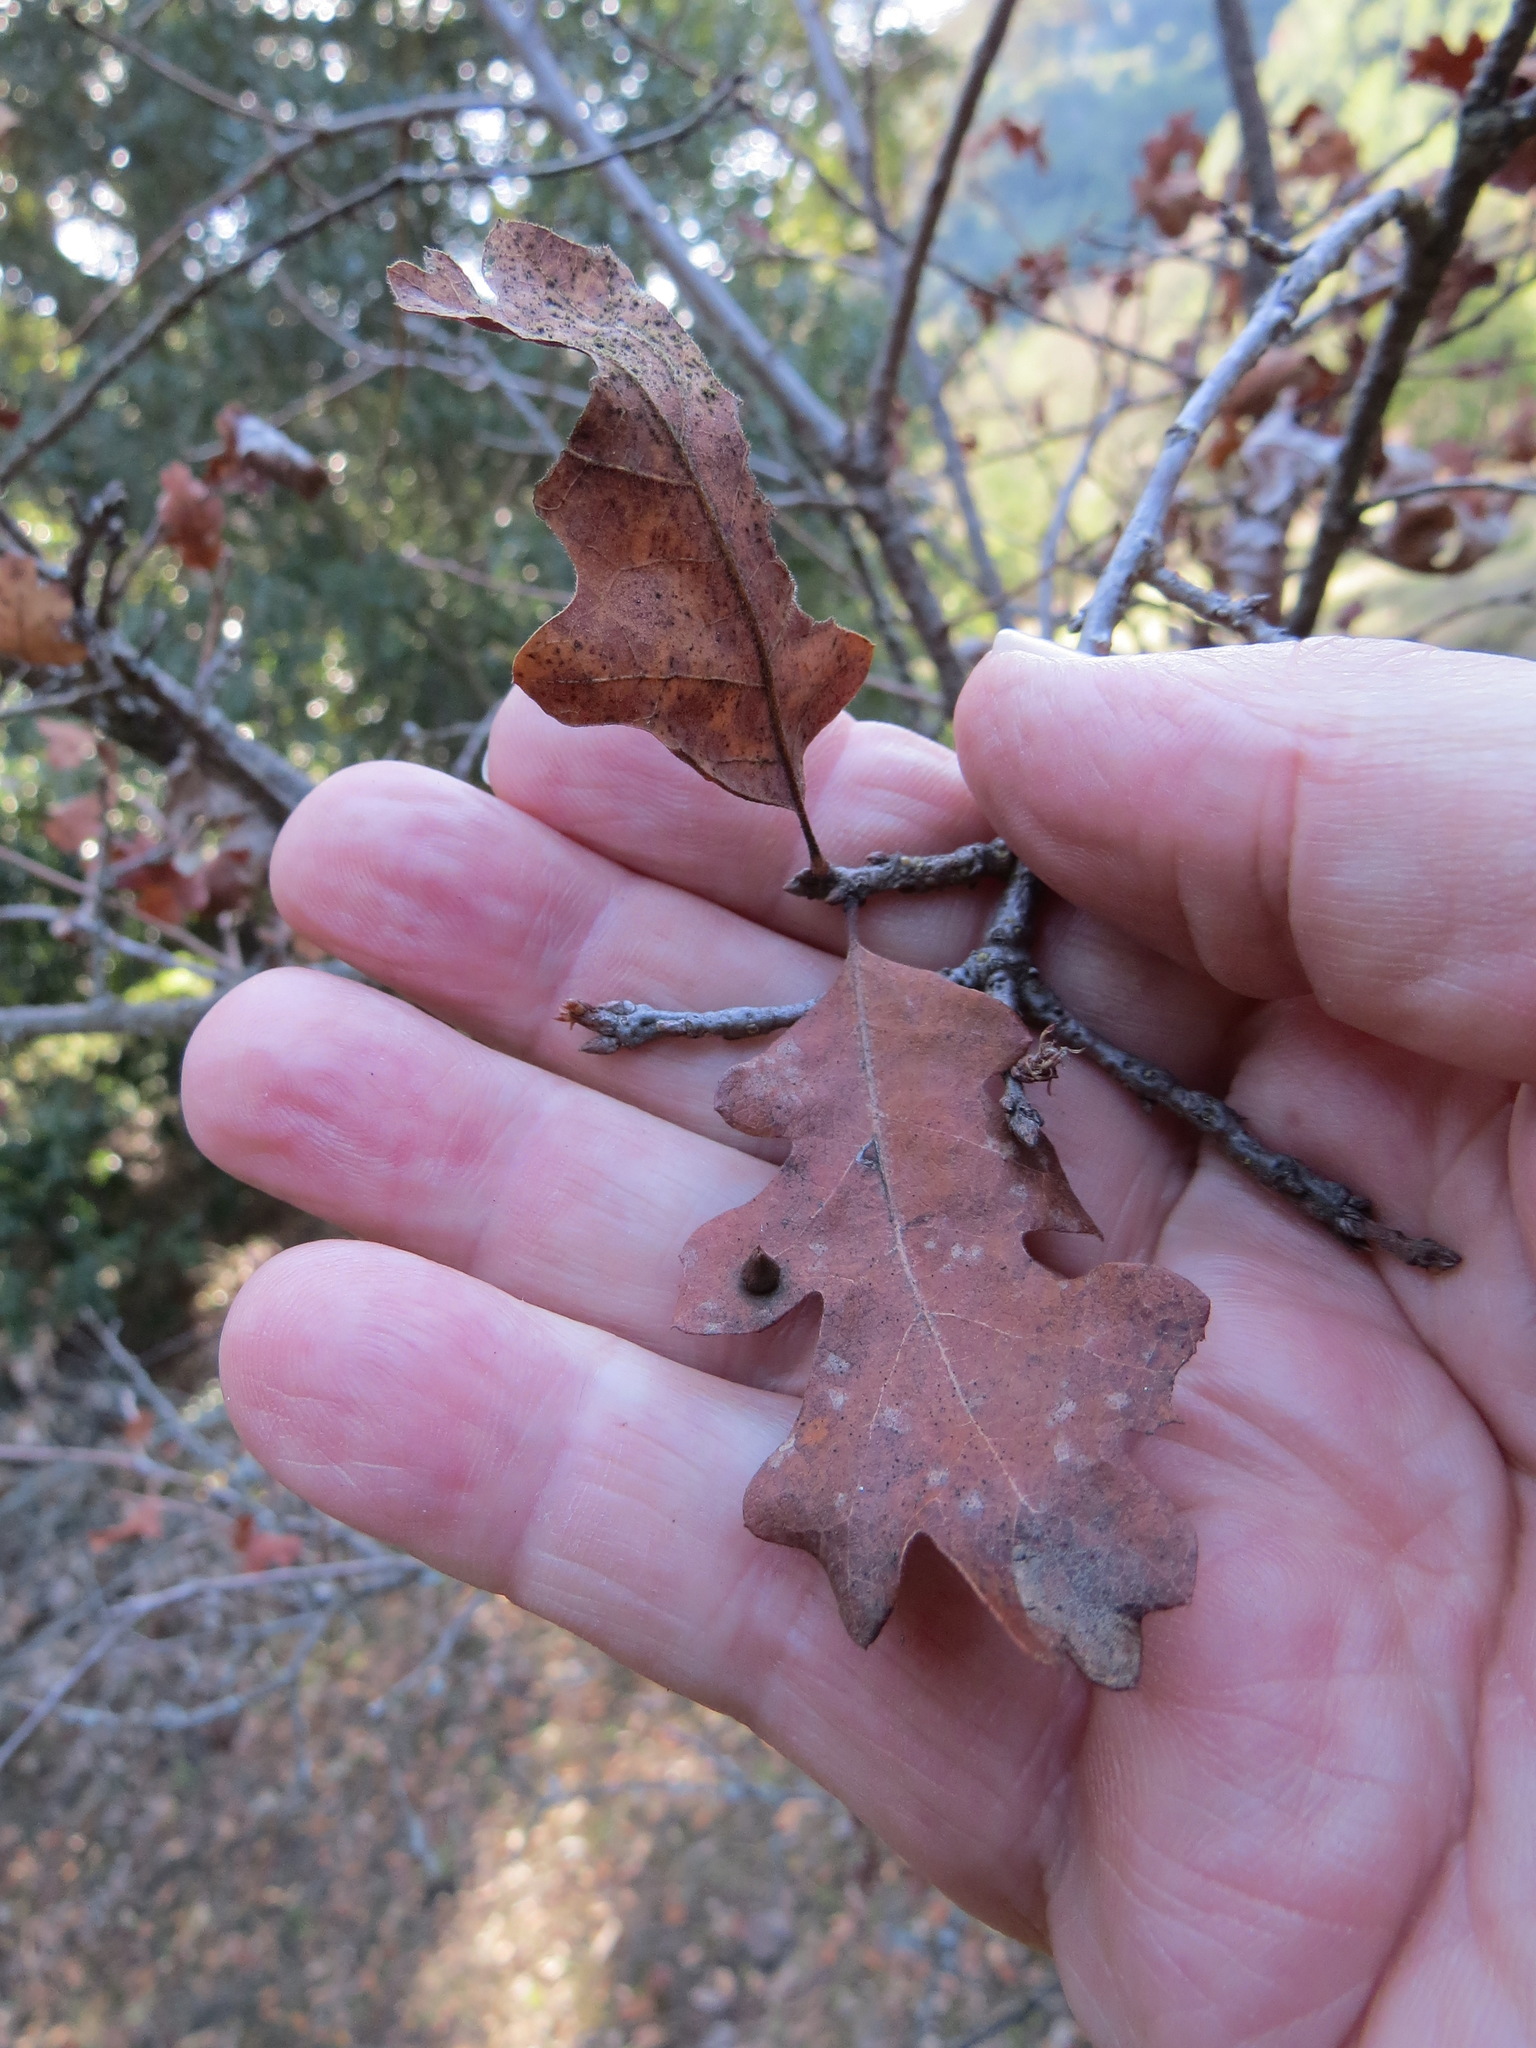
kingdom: Animalia
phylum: Arthropoda
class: Insecta
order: Hymenoptera
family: Cynipidae
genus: Andricus
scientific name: Andricus
